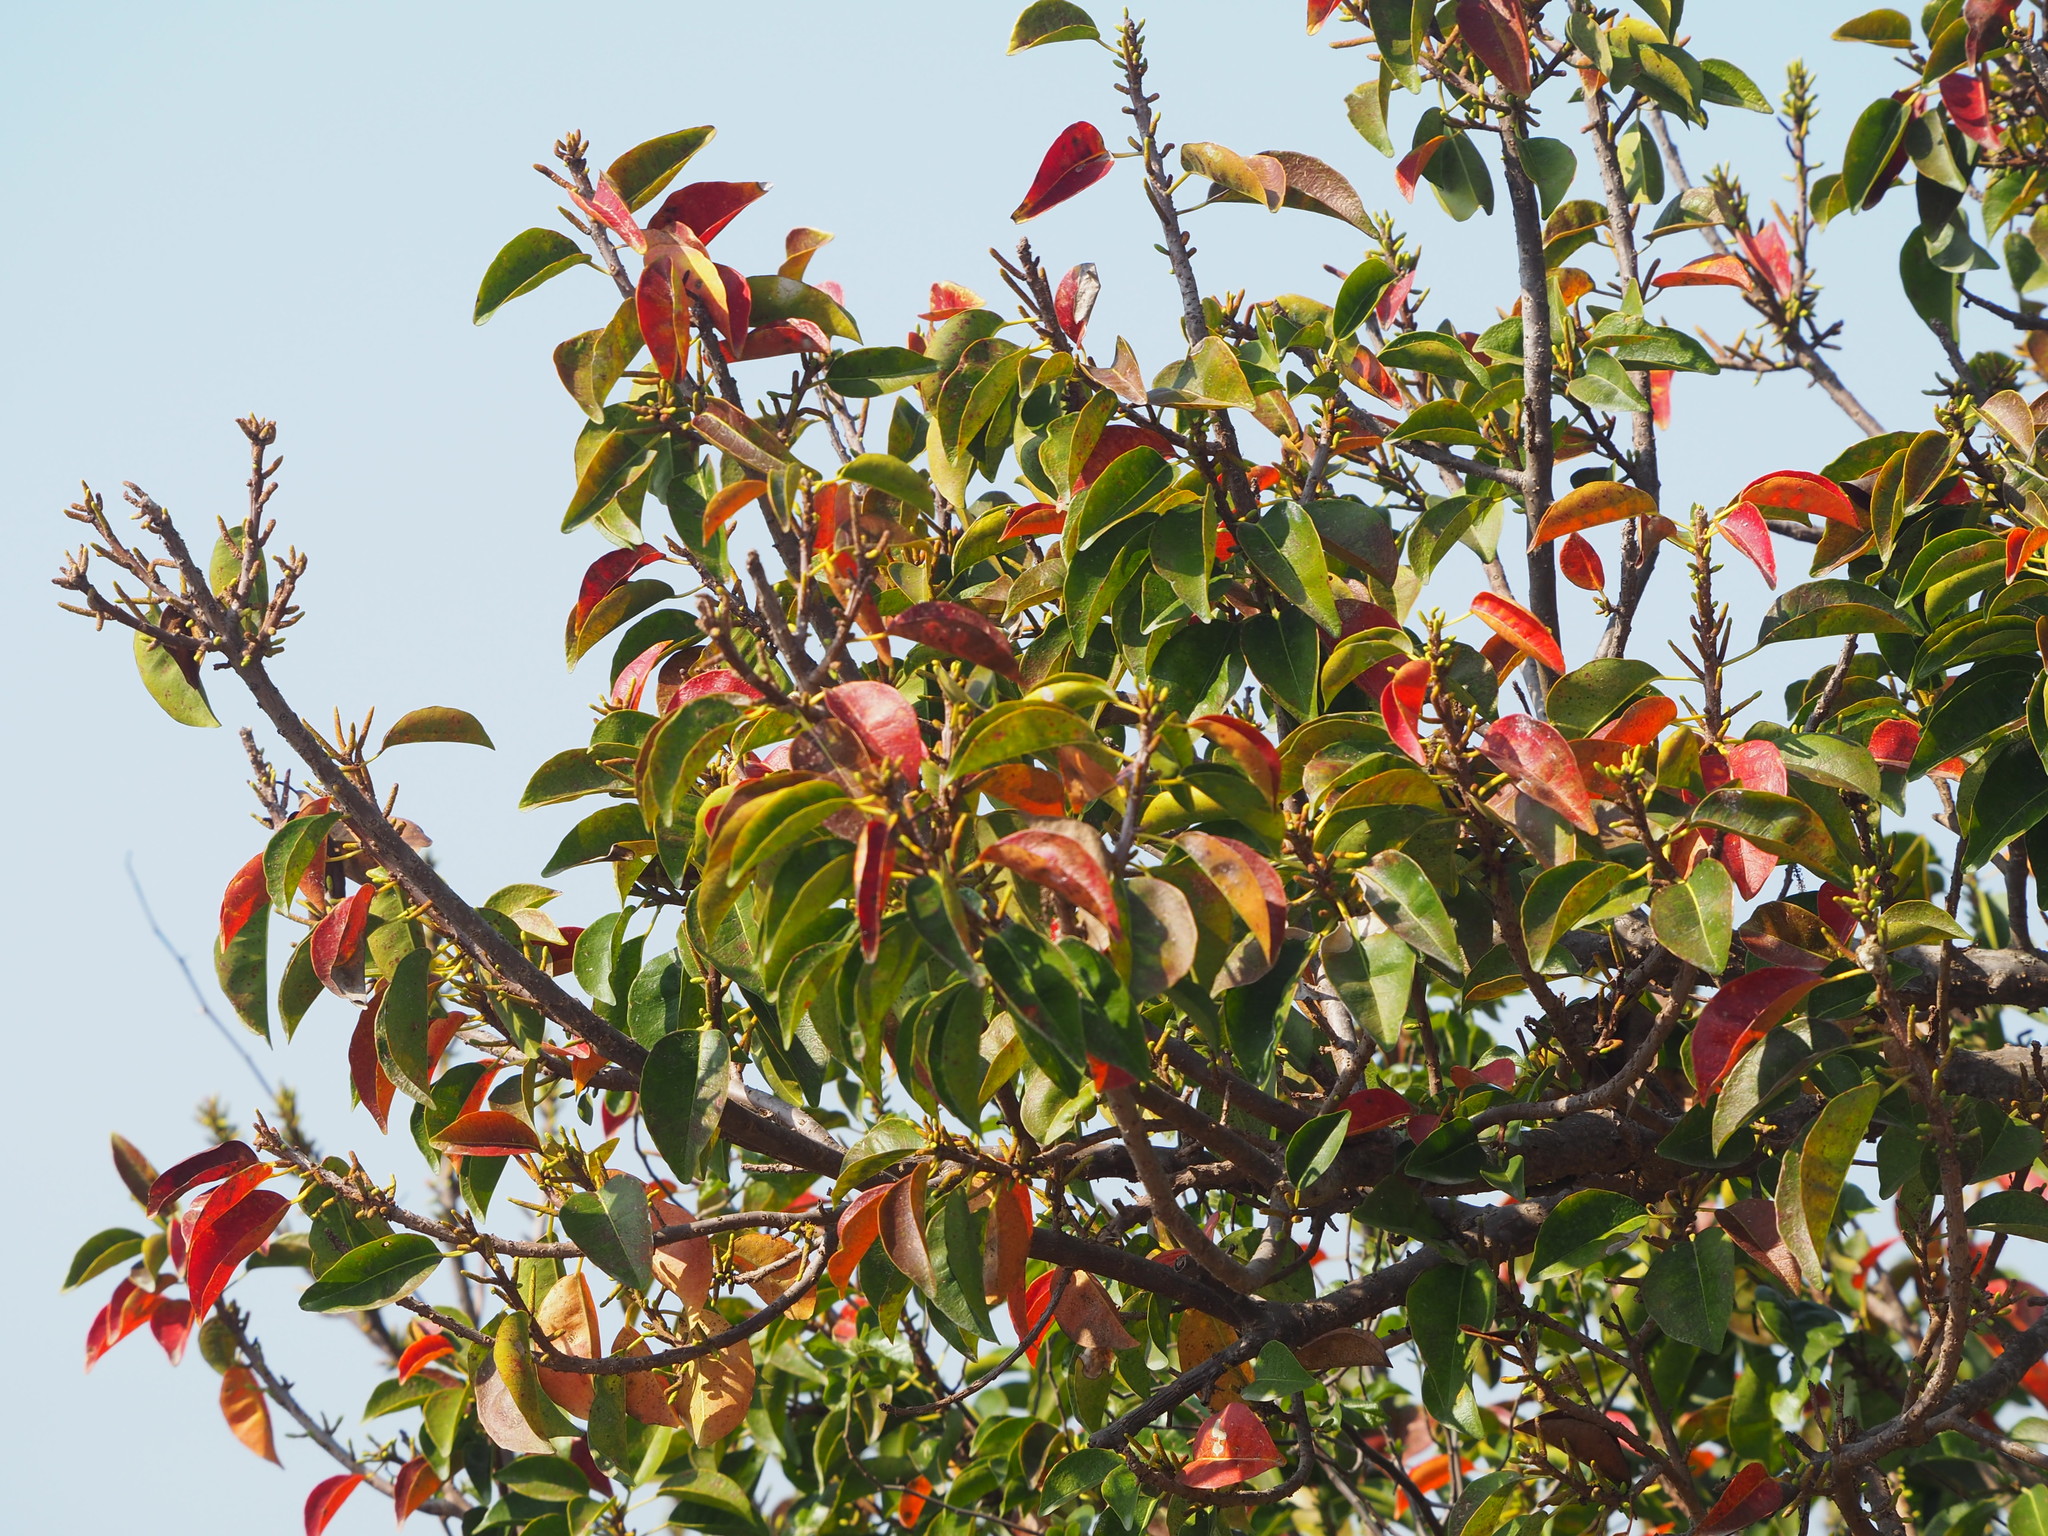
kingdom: Plantae
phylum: Tracheophyta
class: Magnoliopsida
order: Malpighiales
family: Euphorbiaceae
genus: Excoecaria
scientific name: Excoecaria agallocha
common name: River poisontree
